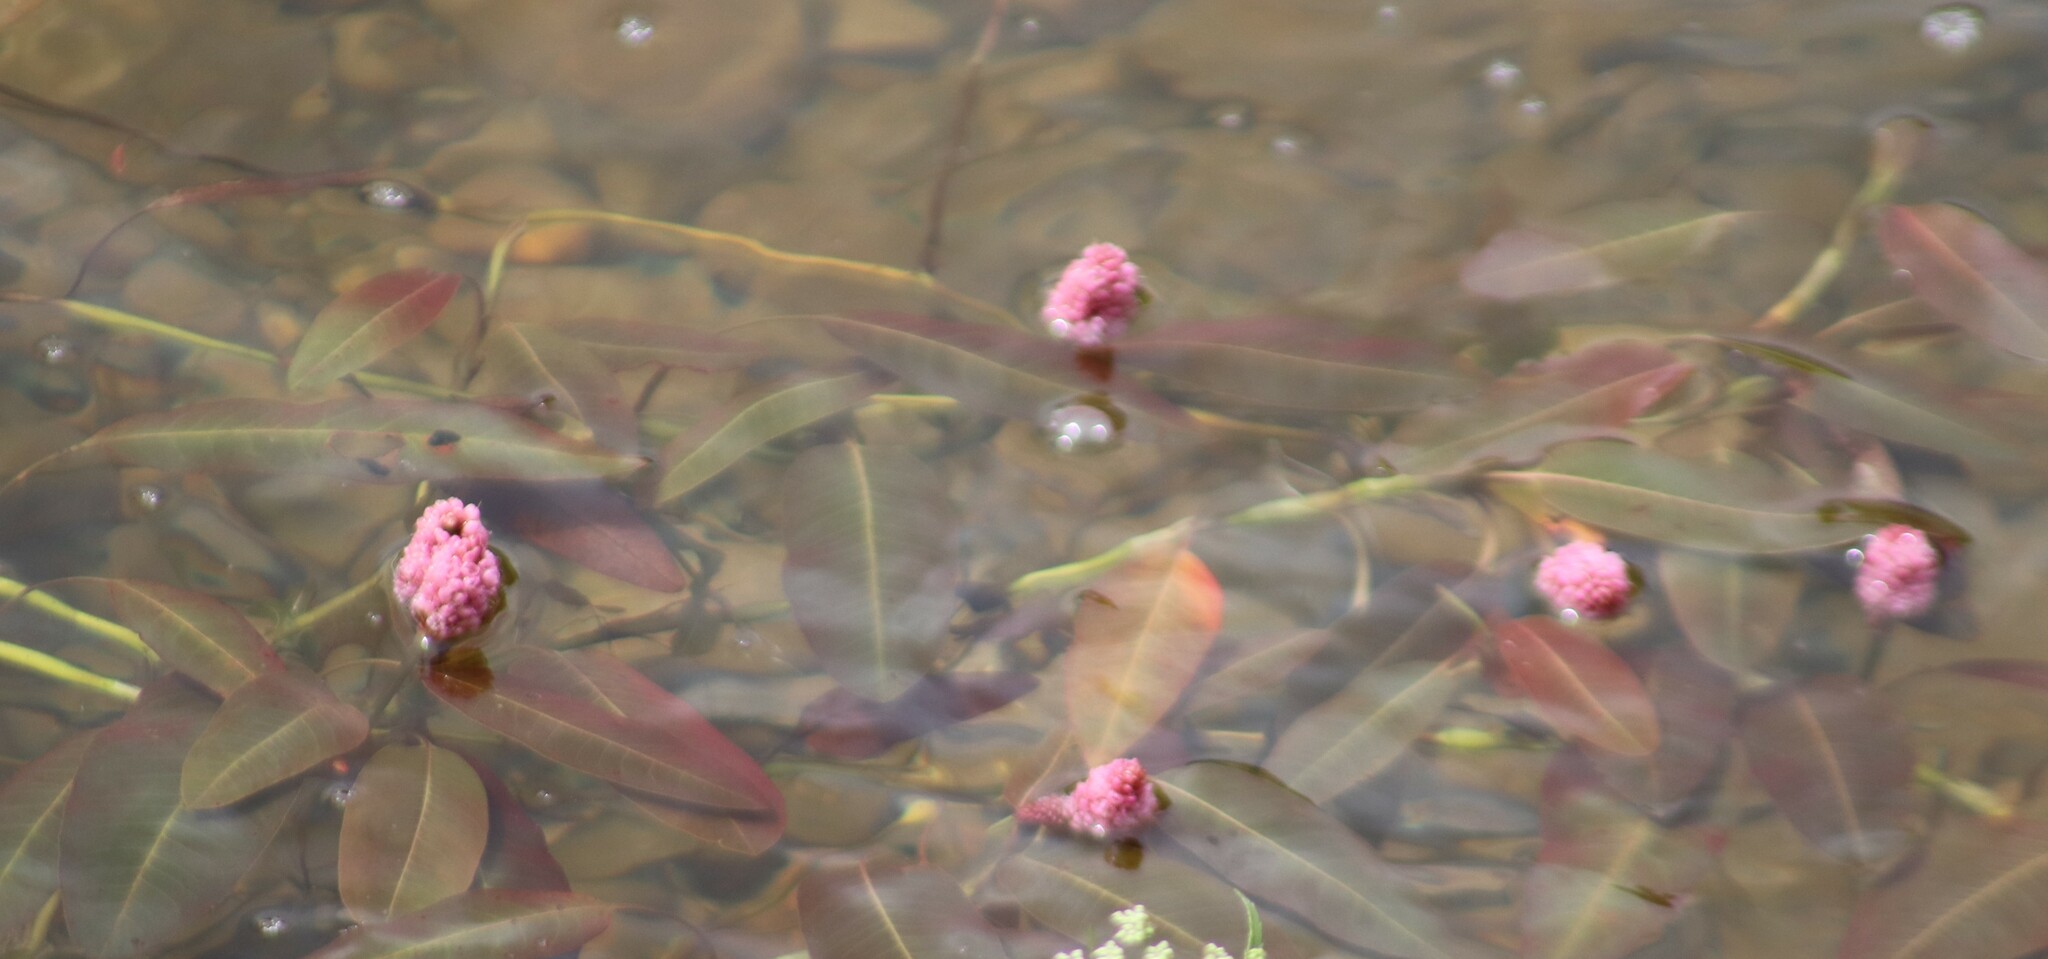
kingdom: Plantae
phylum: Tracheophyta
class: Magnoliopsida
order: Caryophyllales
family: Polygonaceae
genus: Persicaria
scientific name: Persicaria amphibia
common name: Amphibious bistort
